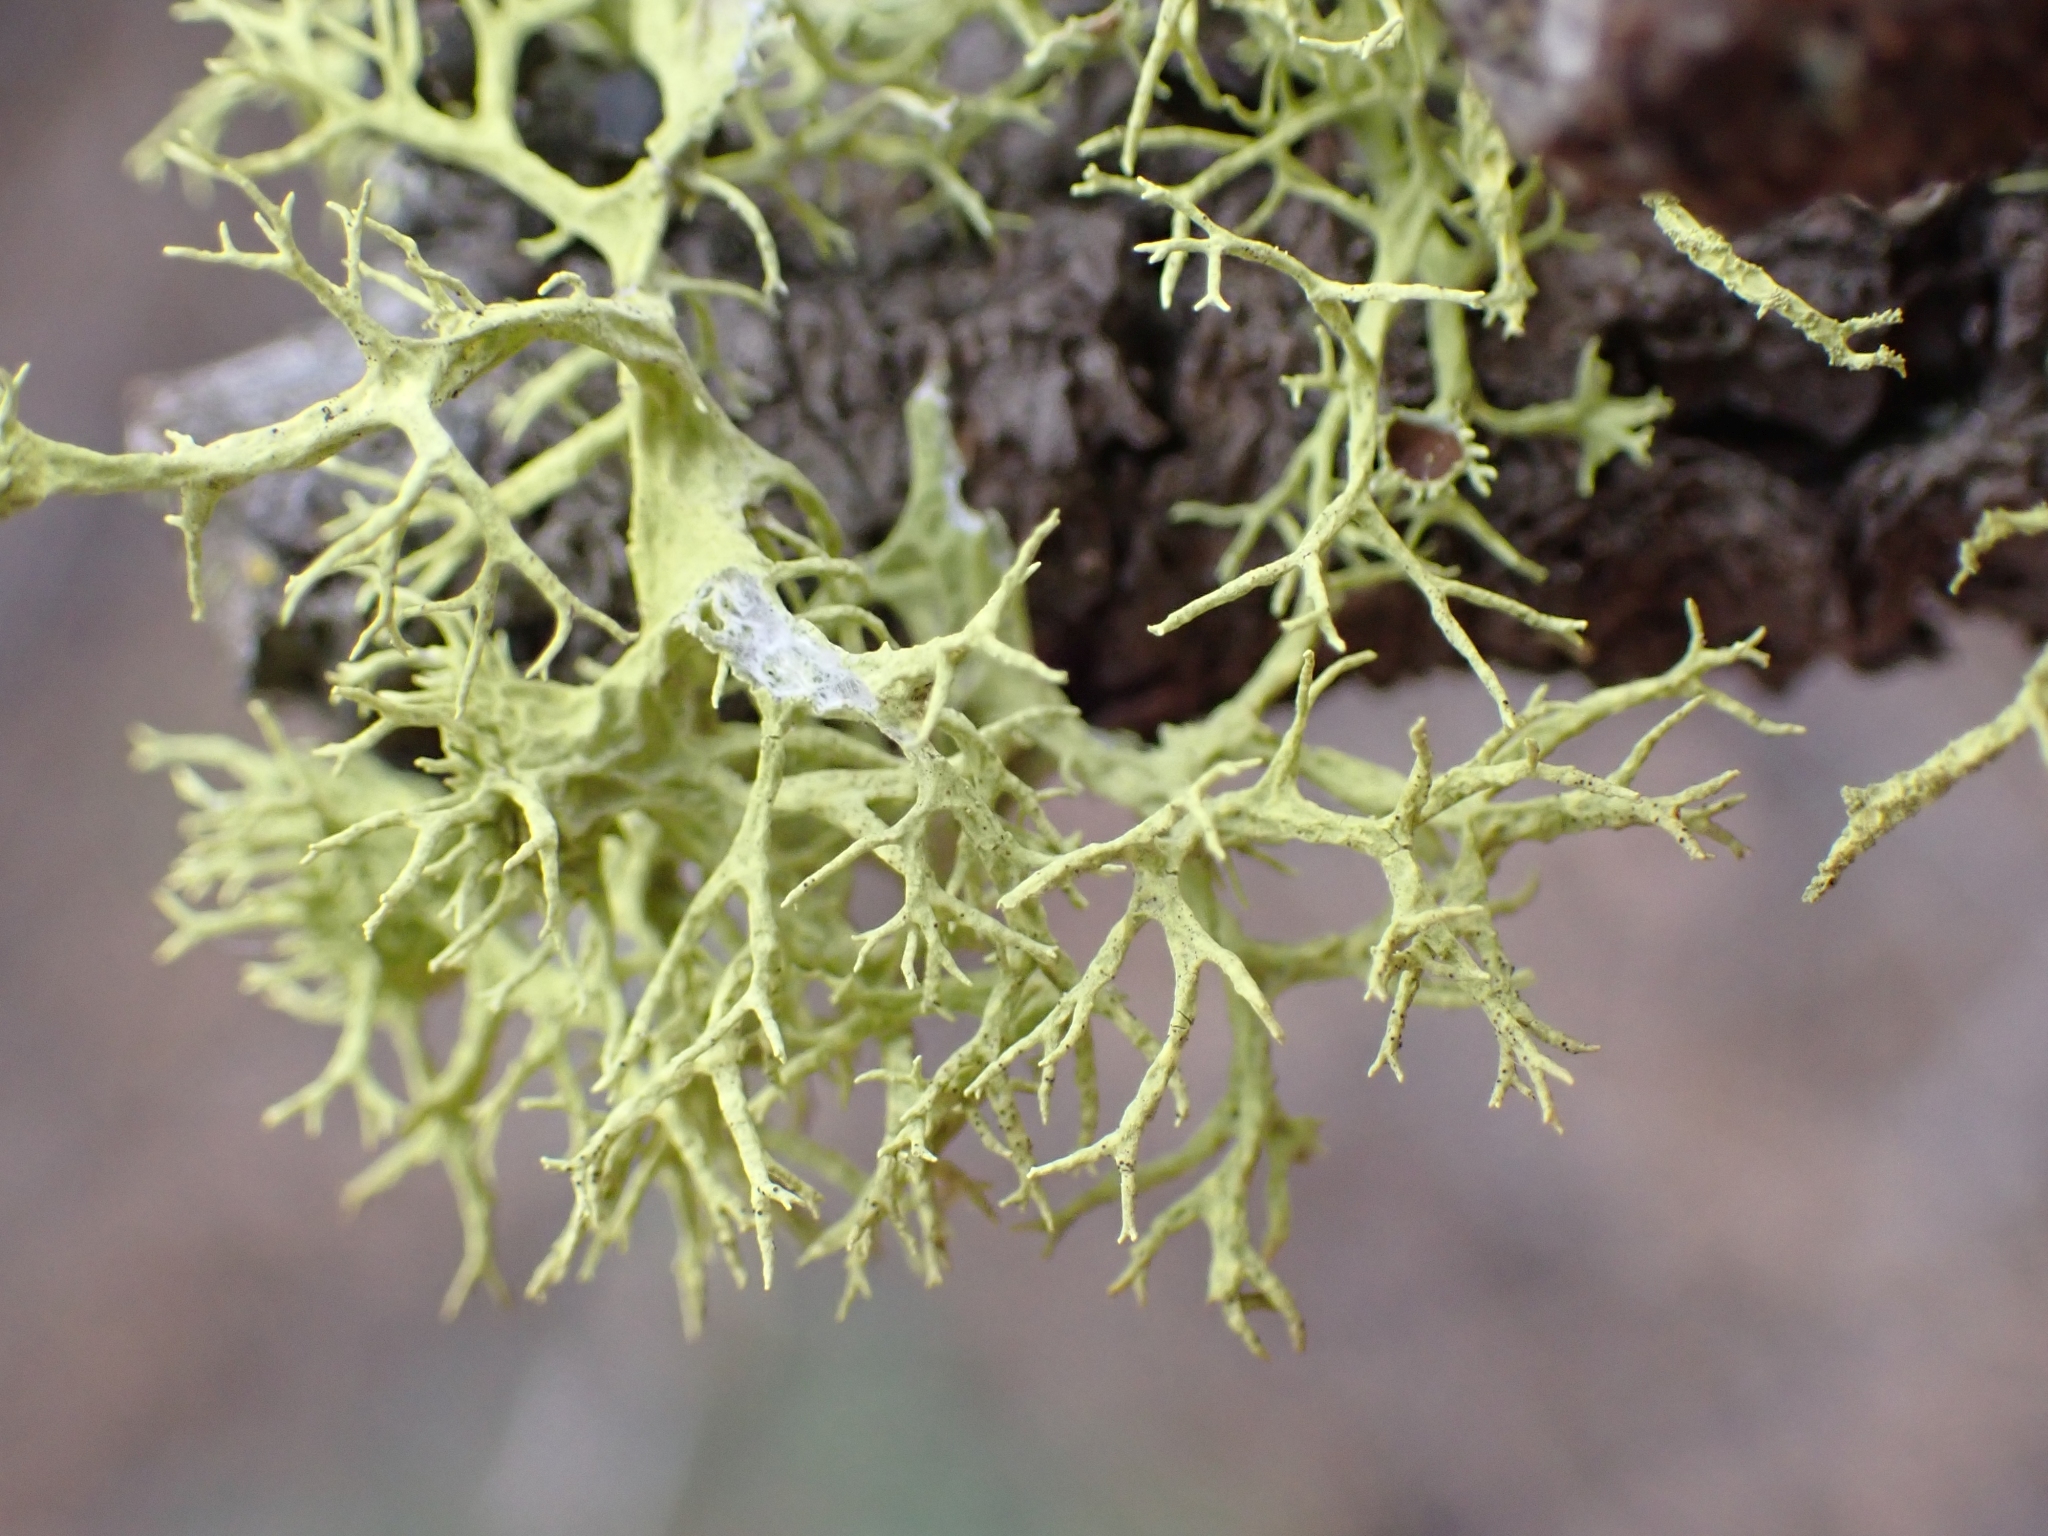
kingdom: Fungi
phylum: Ascomycota
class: Lecanoromycetes
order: Lecanorales
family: Parmeliaceae
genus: Letharia
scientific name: Letharia columbiana
